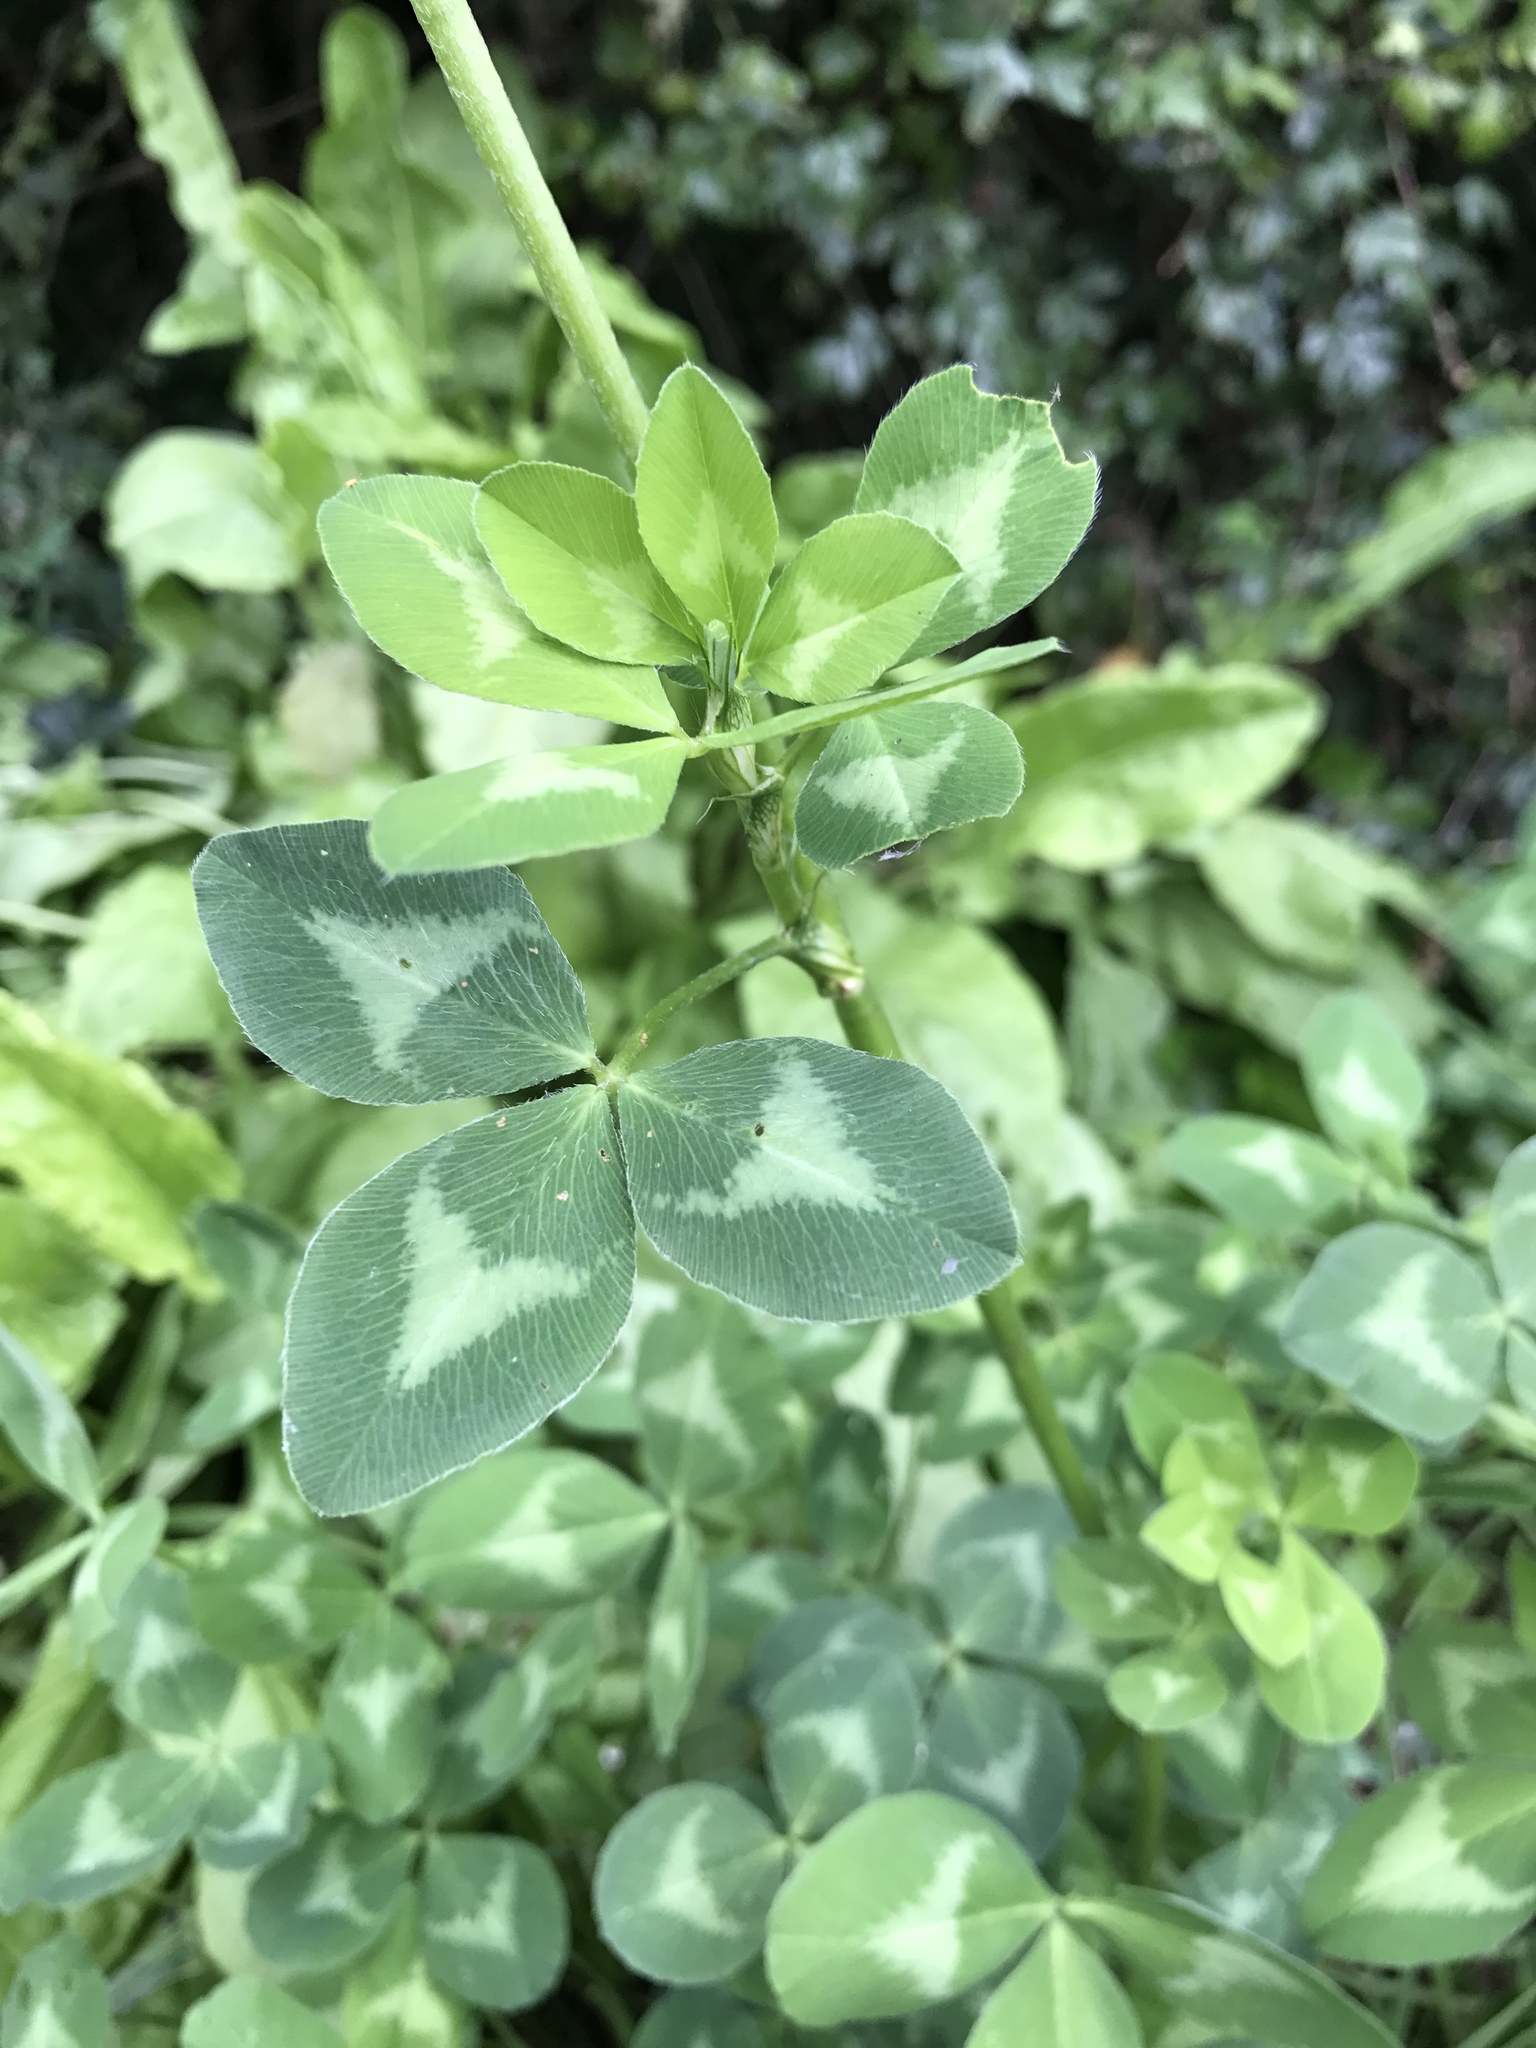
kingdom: Plantae
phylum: Tracheophyta
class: Magnoliopsida
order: Fabales
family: Fabaceae
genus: Trifolium
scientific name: Trifolium pratense
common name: Red clover
